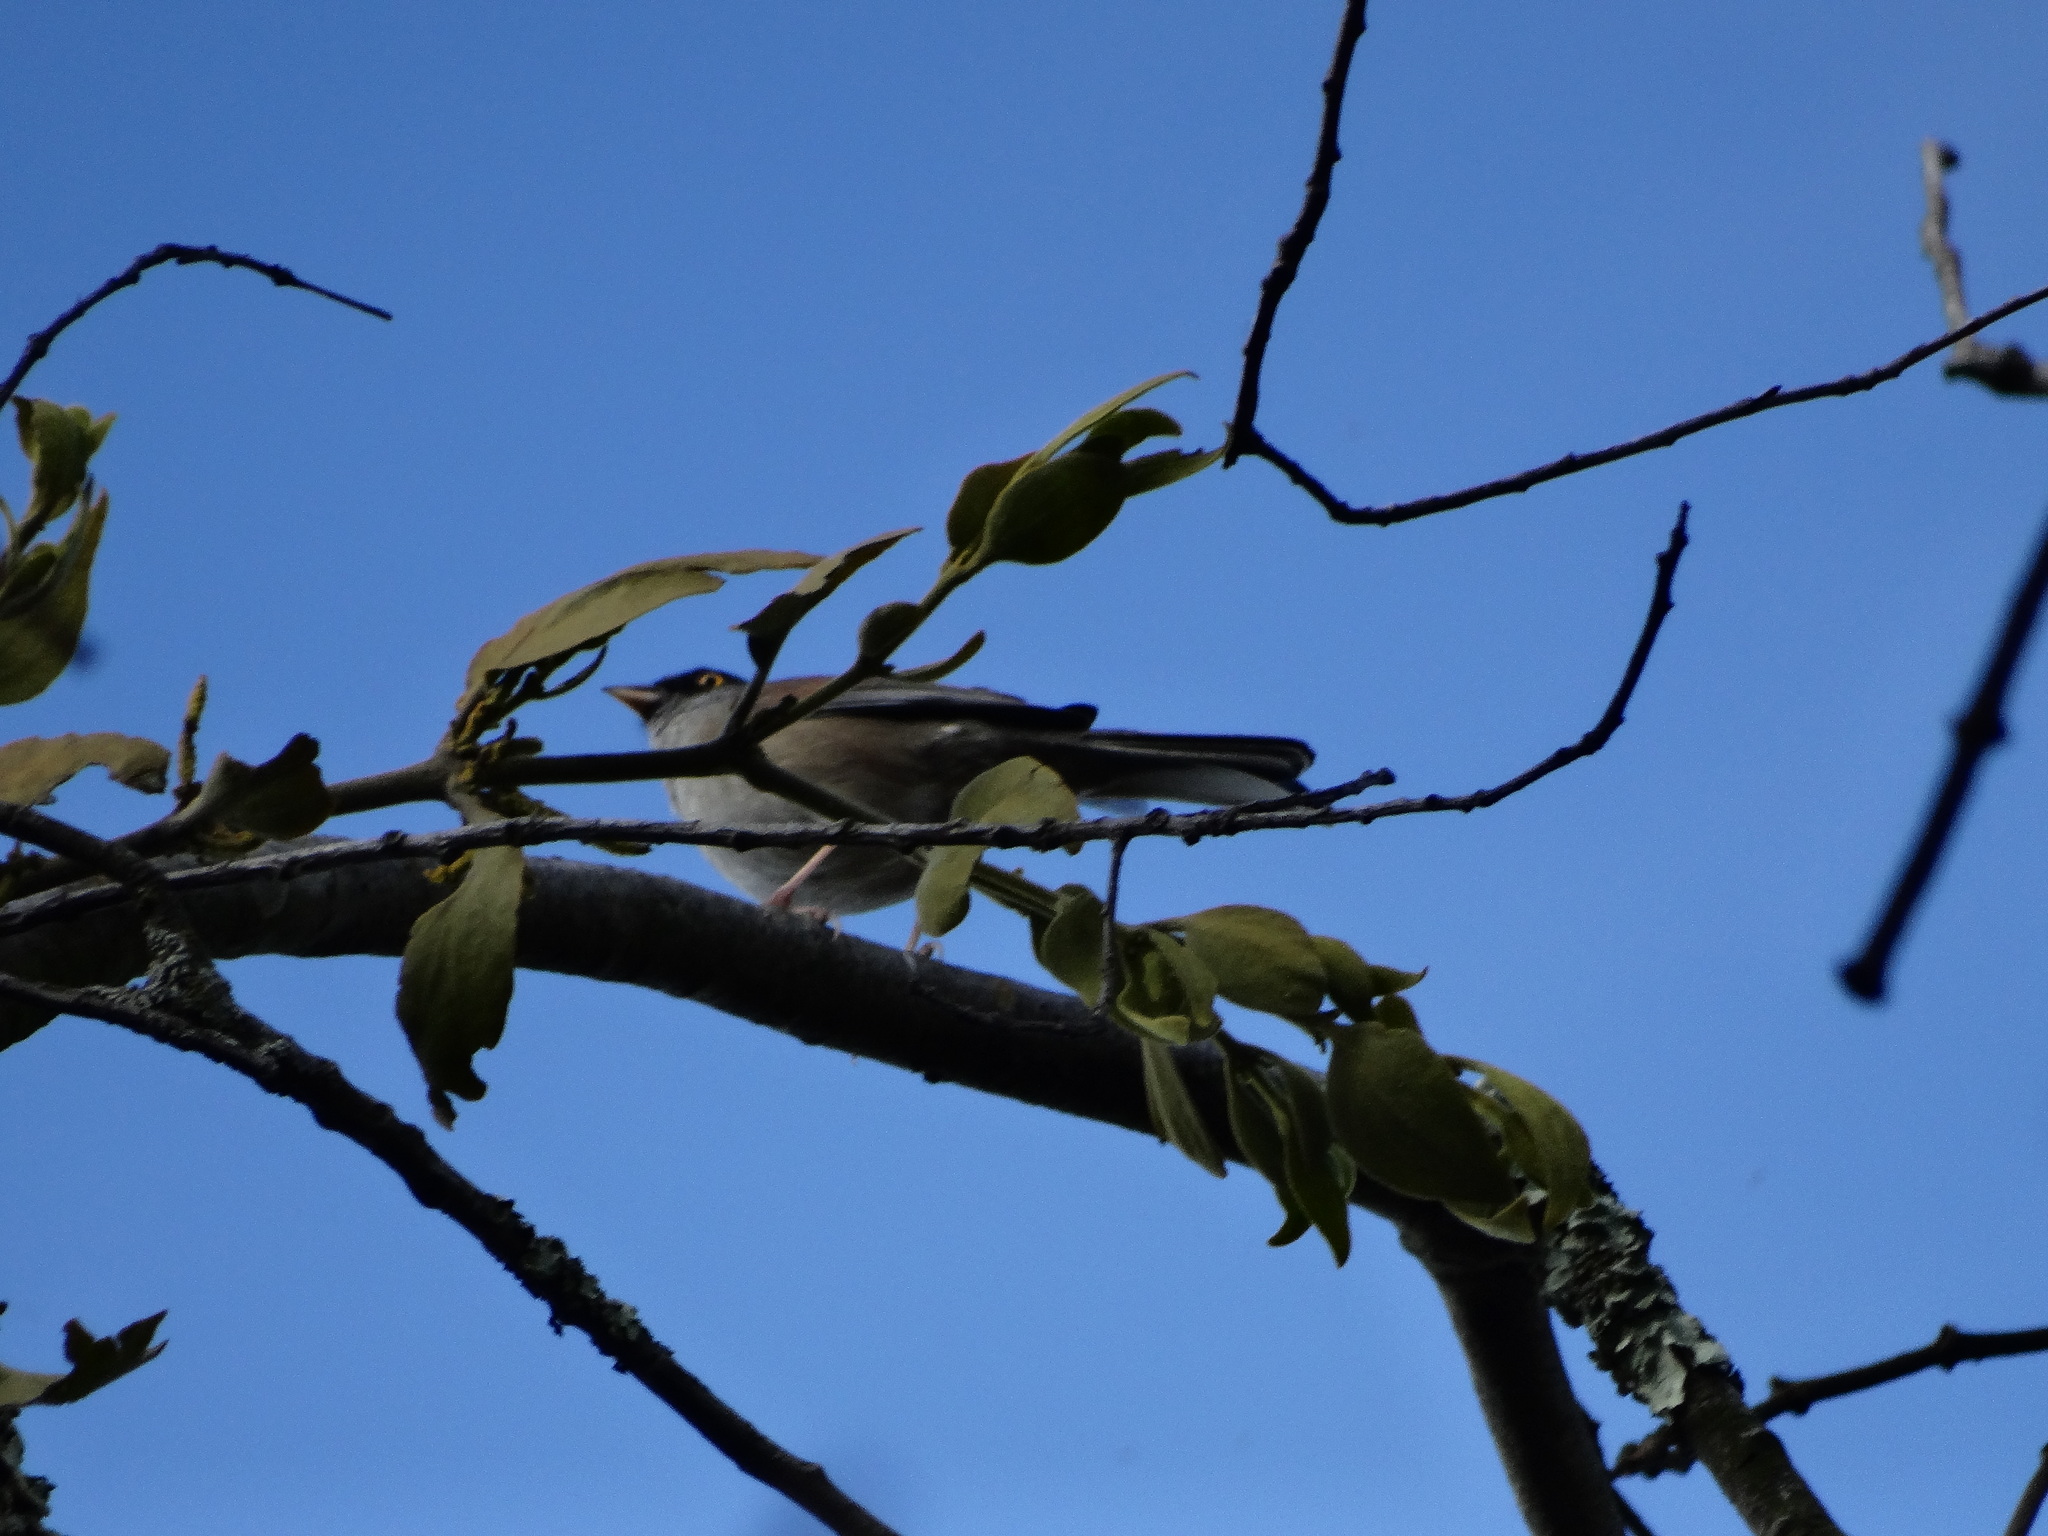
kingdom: Animalia
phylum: Chordata
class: Aves
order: Passeriformes
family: Passerellidae
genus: Junco
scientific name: Junco phaeonotus
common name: Yellow-eyed junco
